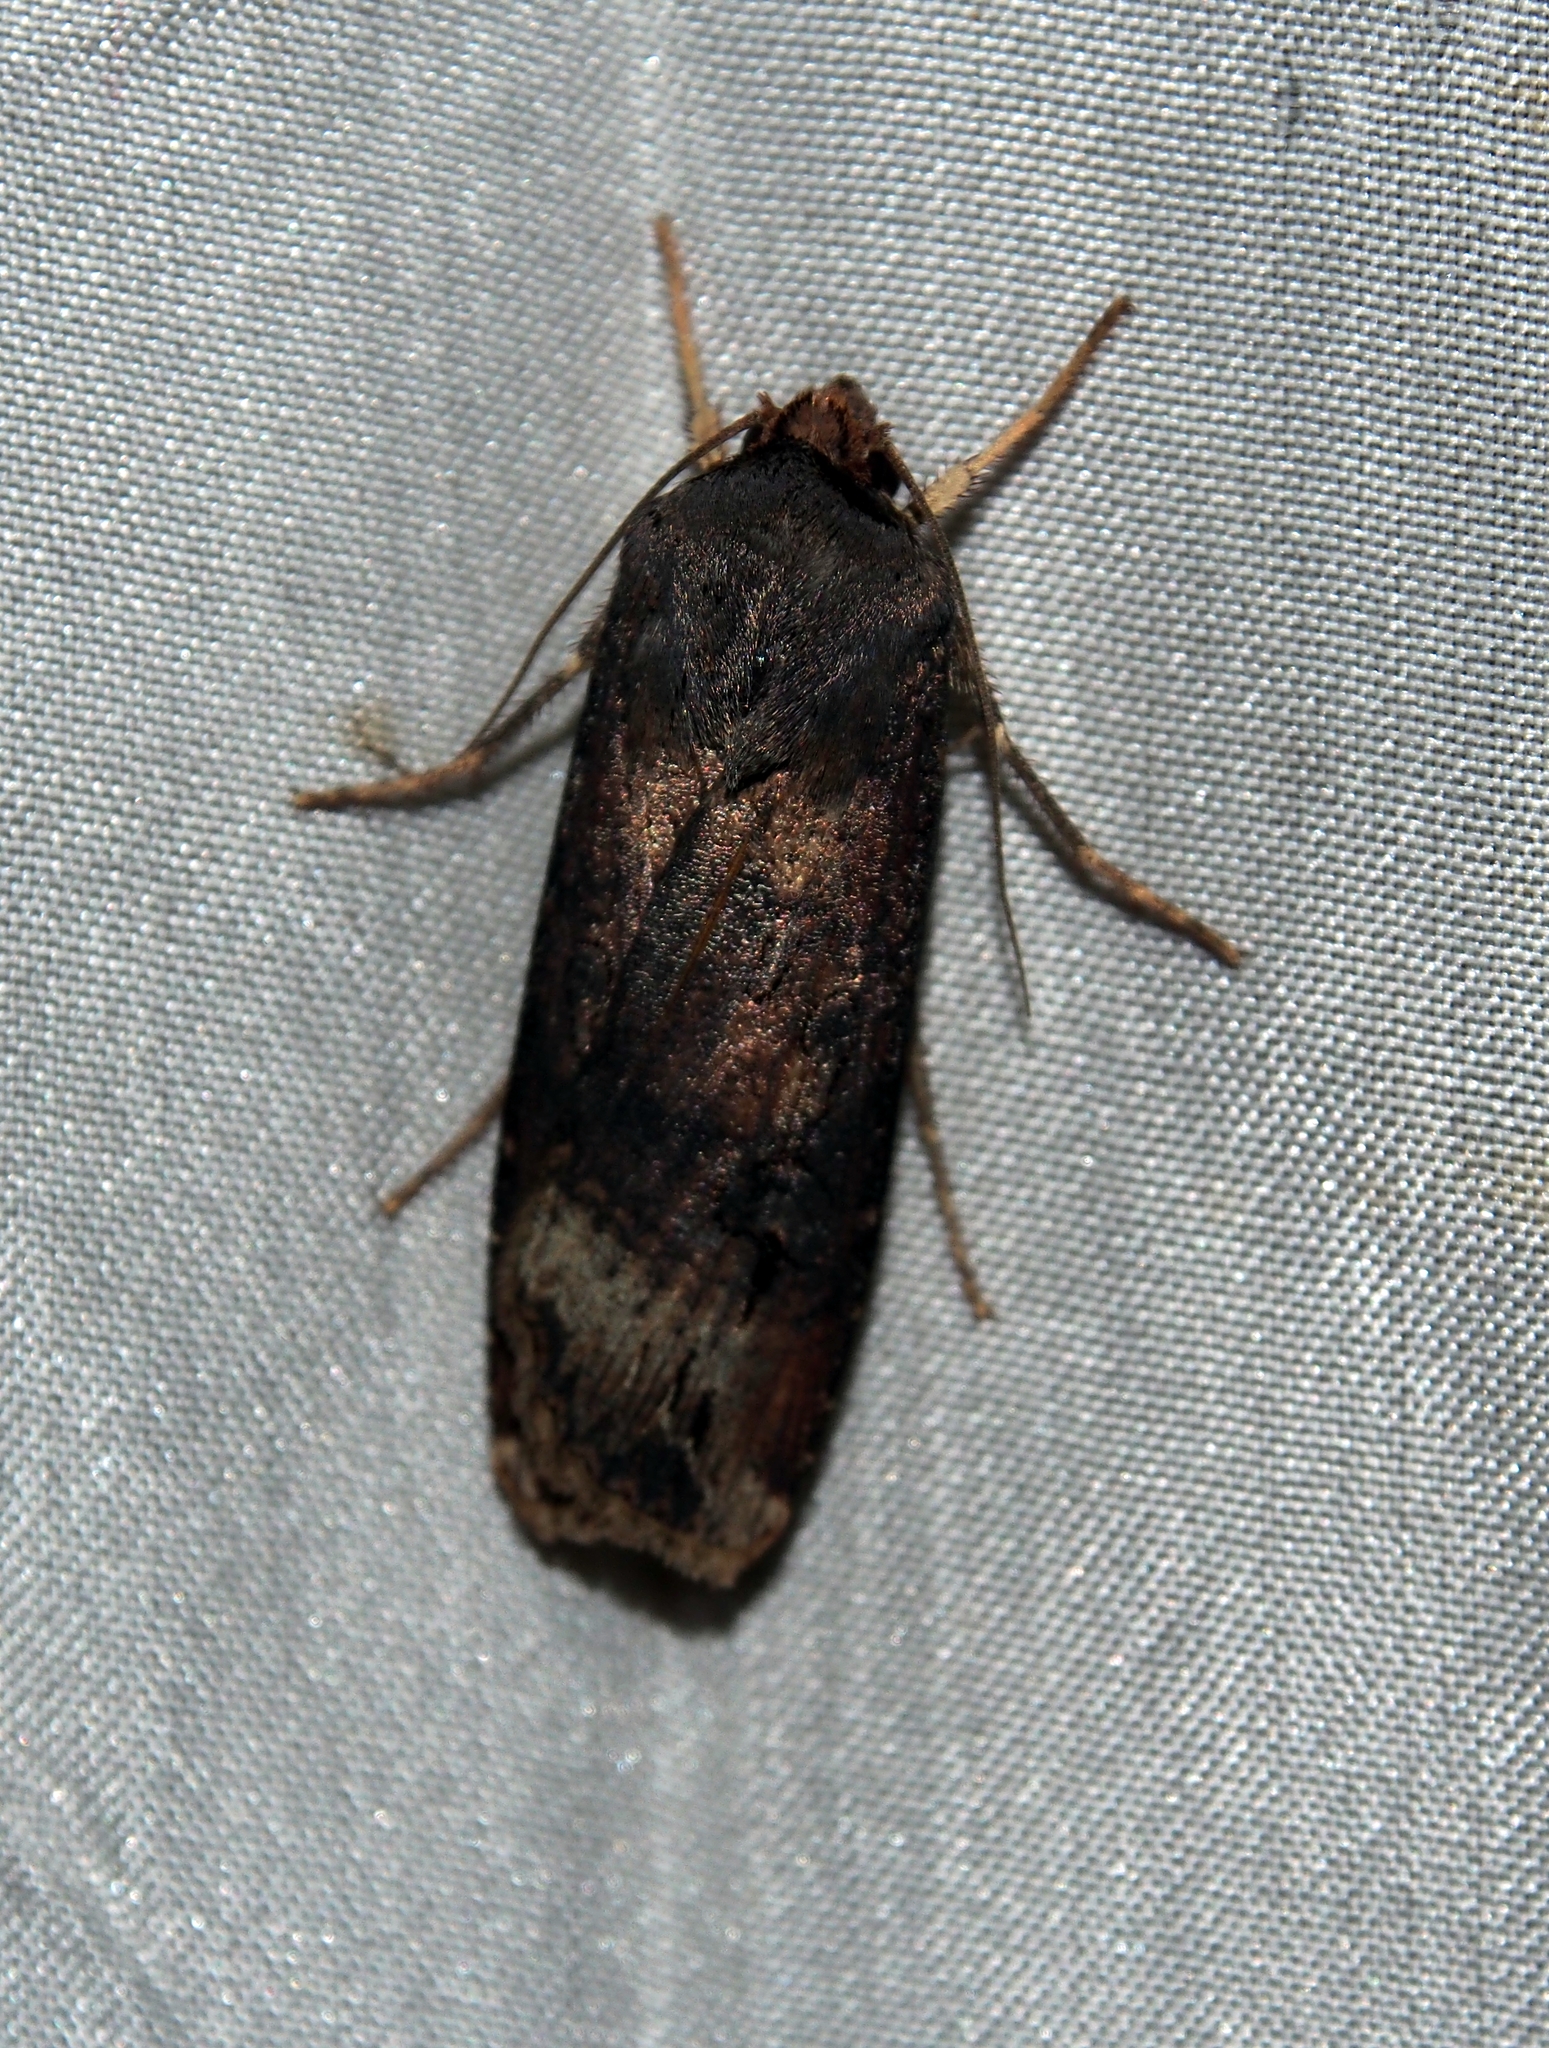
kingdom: Animalia
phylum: Arthropoda
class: Insecta
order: Lepidoptera
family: Noctuidae
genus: Agrotis
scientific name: Agrotis ipsilon
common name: Dark sword-grass
